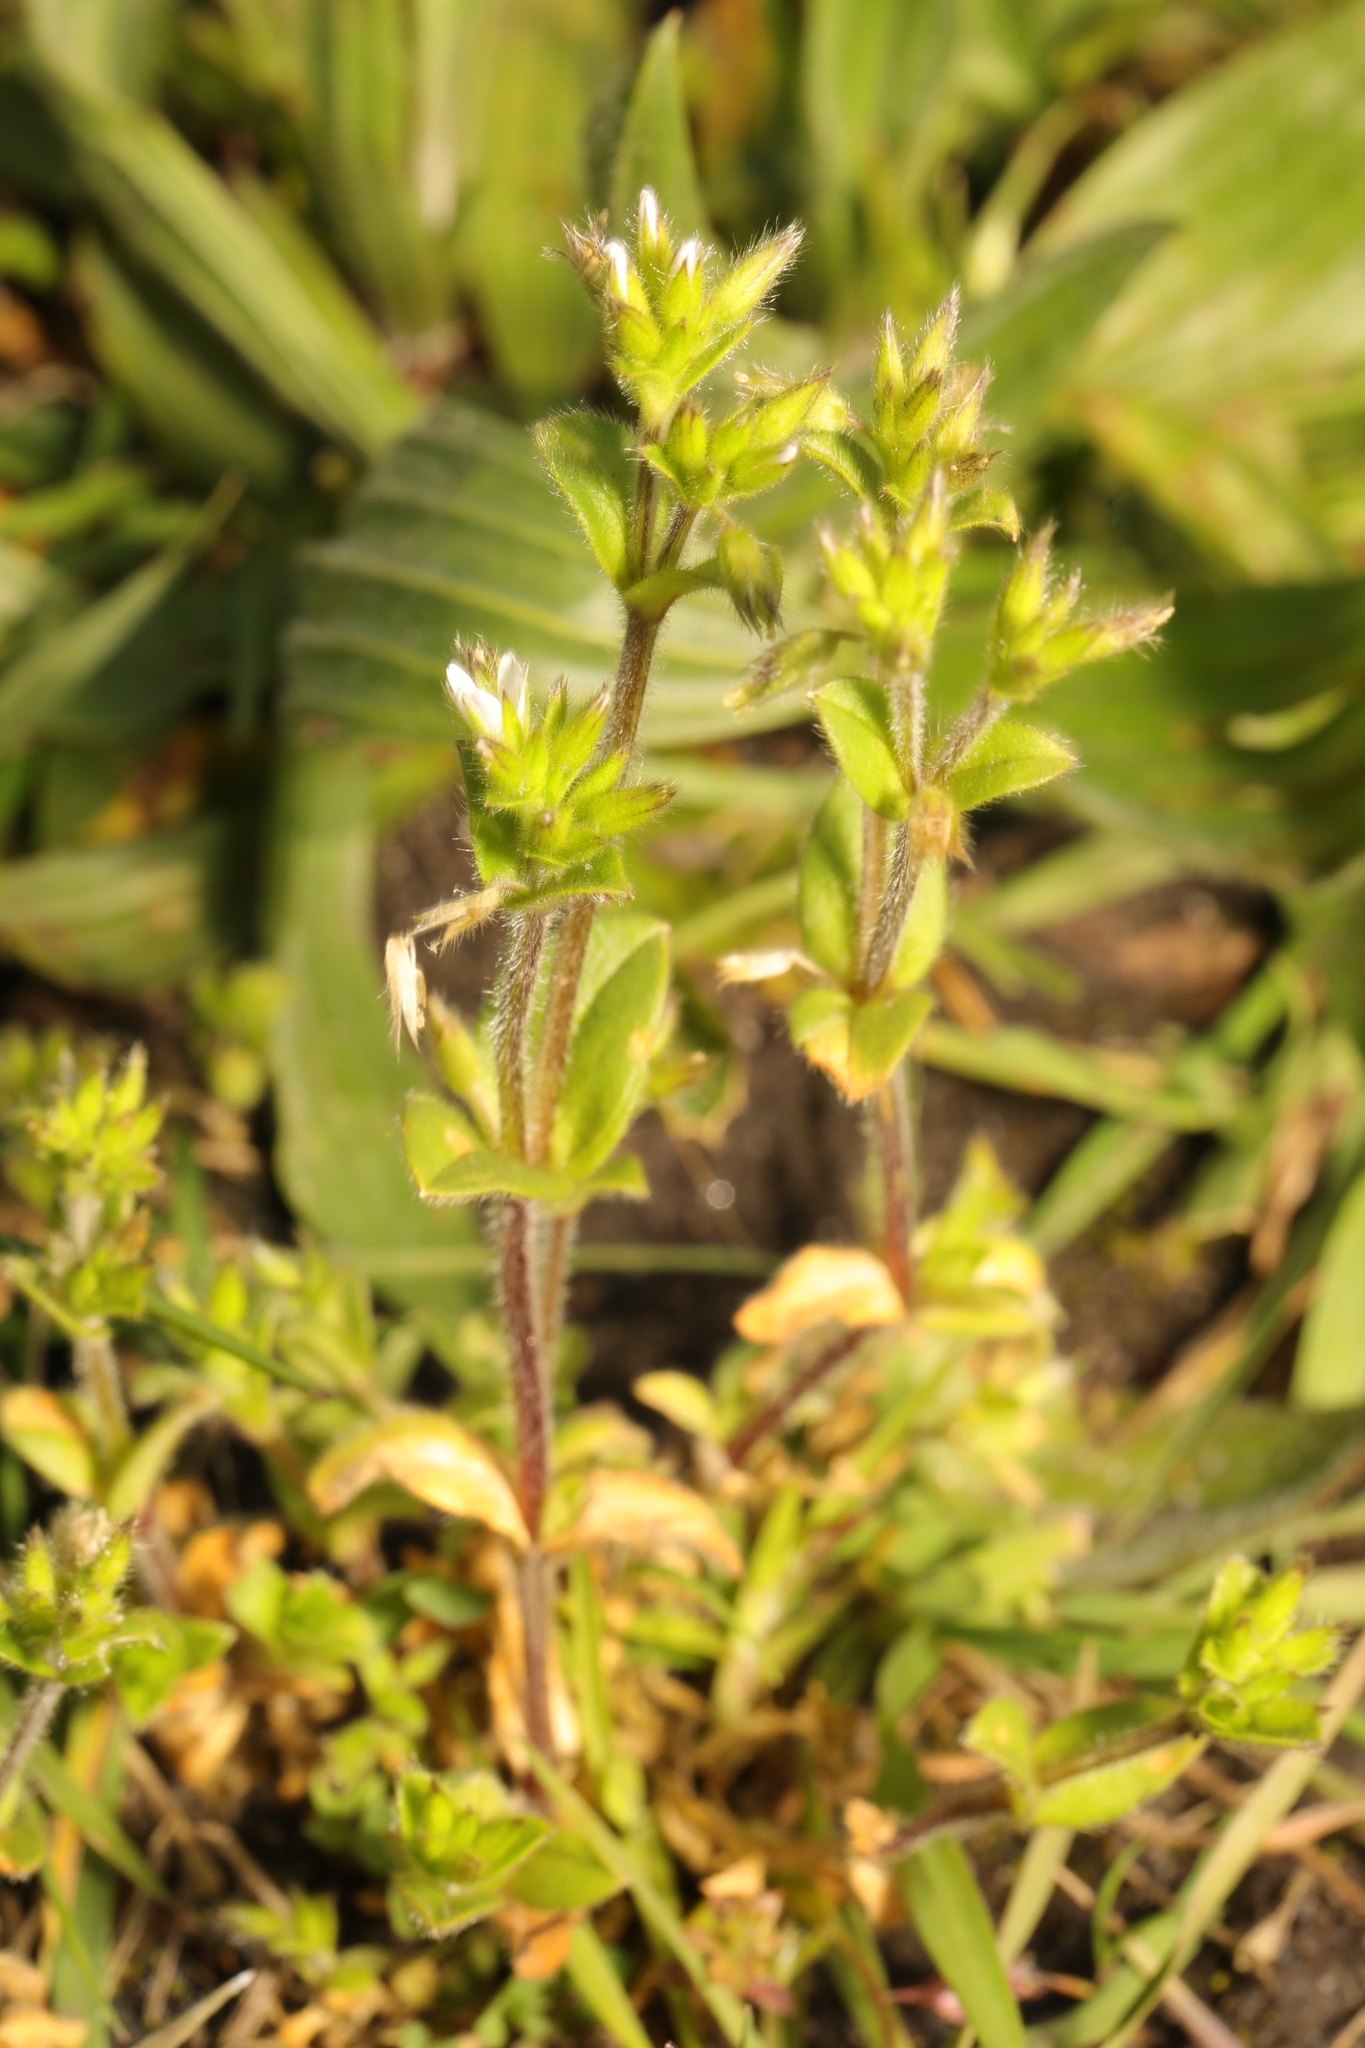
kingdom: Plantae
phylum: Tracheophyta
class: Magnoliopsida
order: Caryophyllales
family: Caryophyllaceae
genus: Cerastium
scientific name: Cerastium glomeratum
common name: Sticky chickweed
